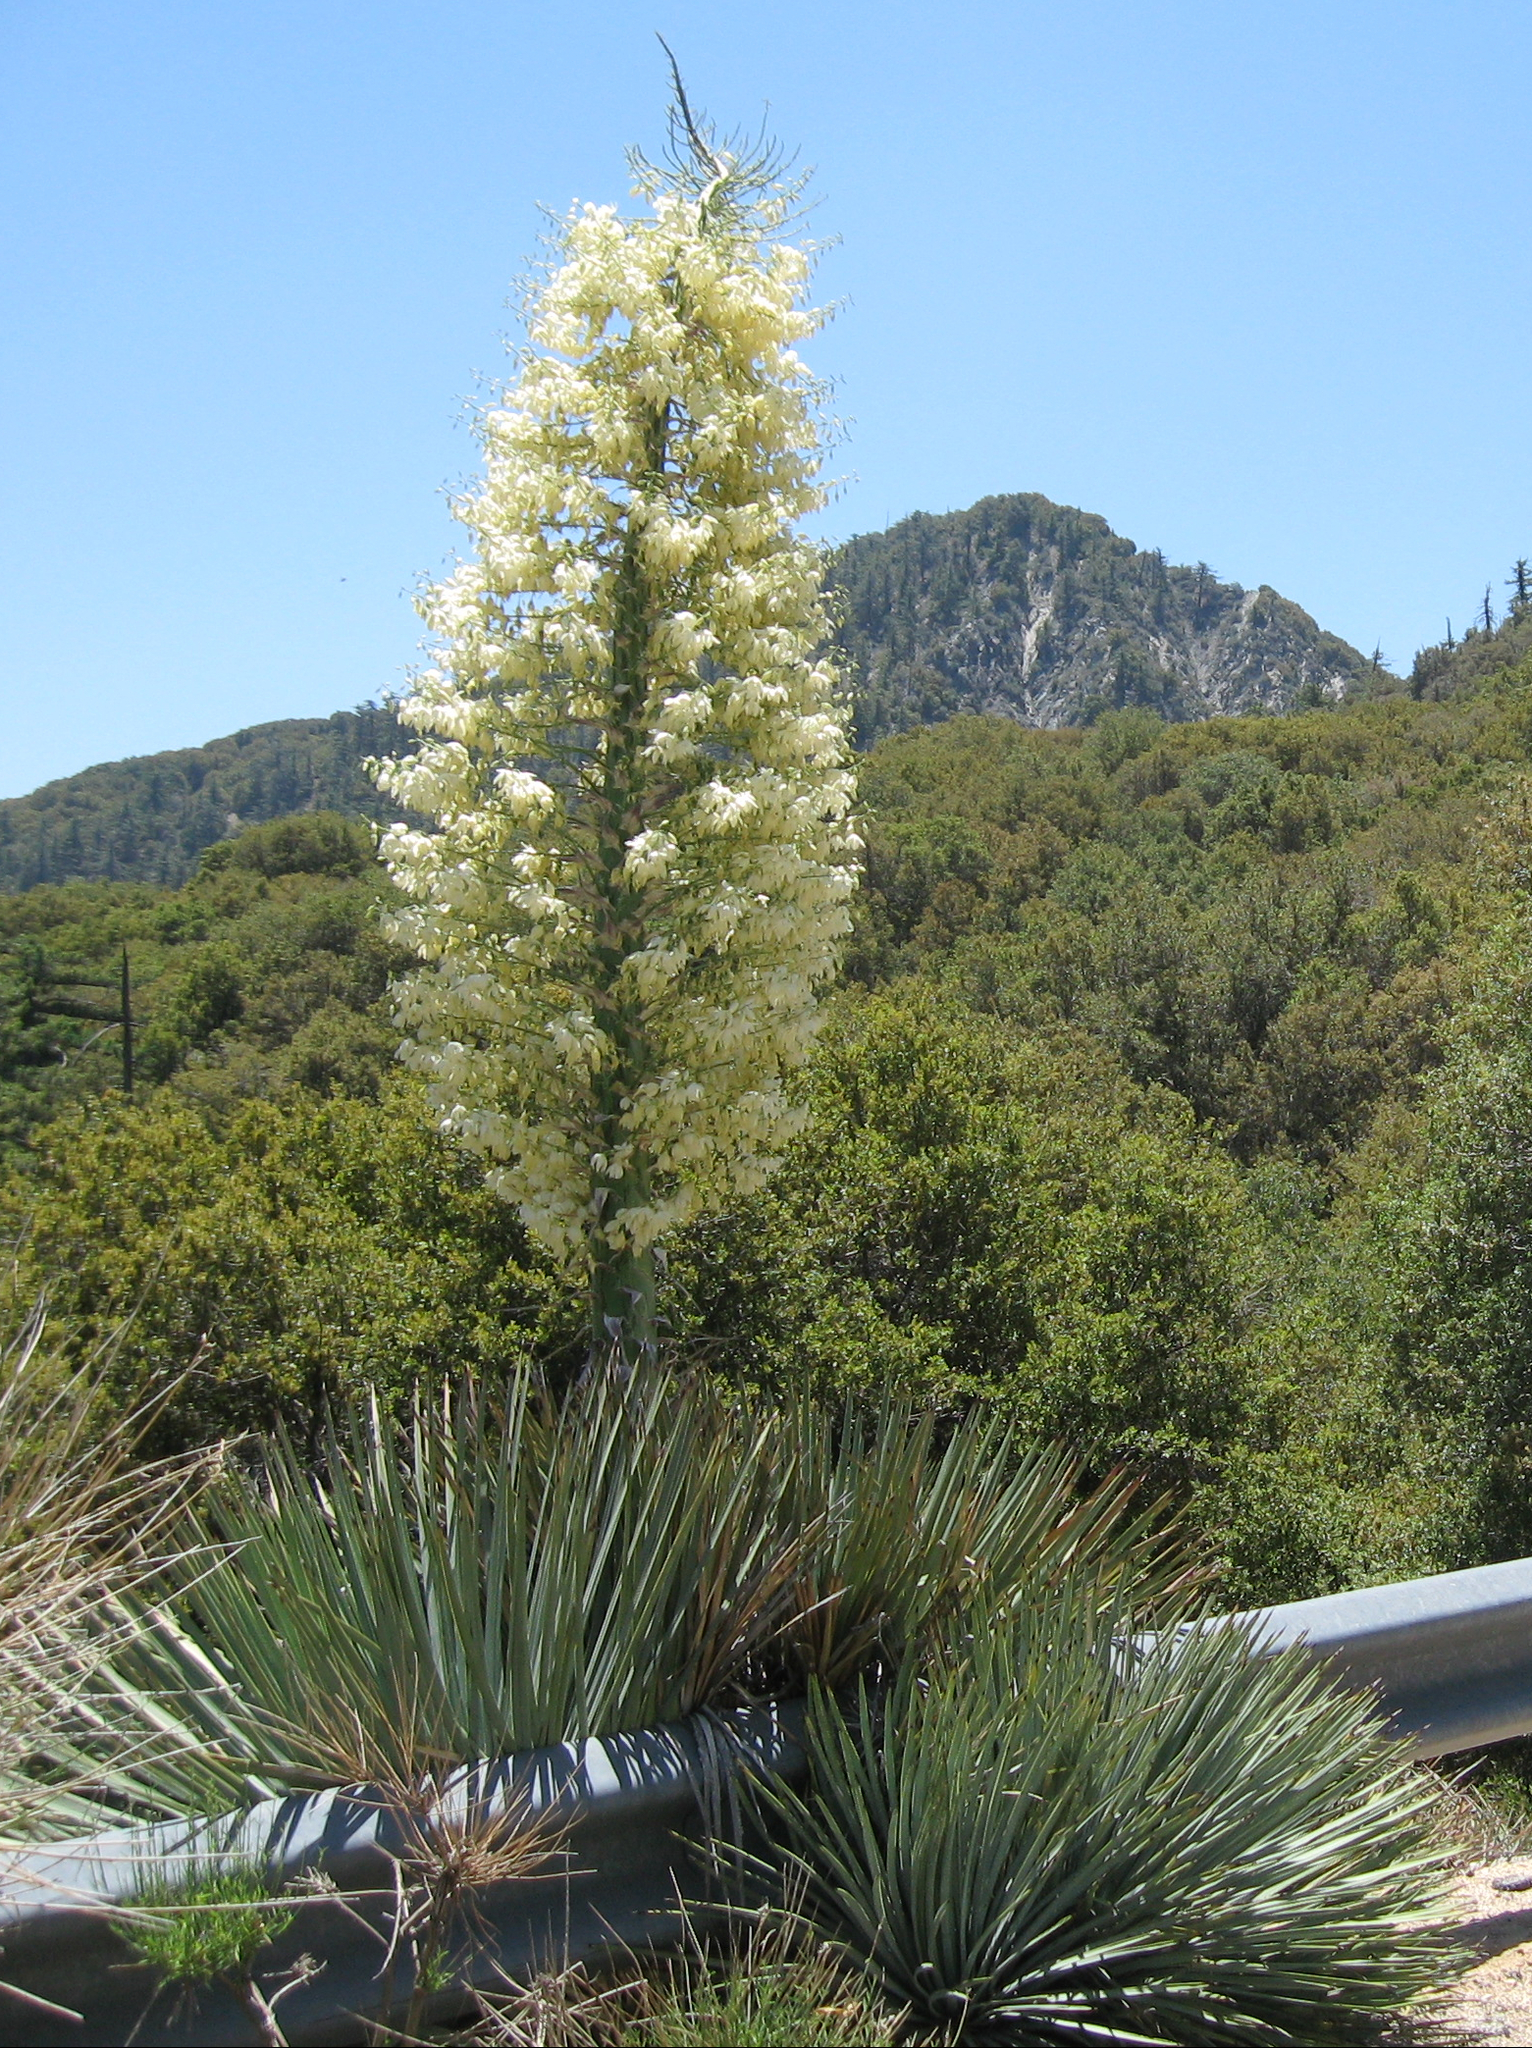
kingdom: Plantae
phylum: Tracheophyta
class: Liliopsida
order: Asparagales
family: Asparagaceae
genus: Hesperoyucca
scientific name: Hesperoyucca whipplei
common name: Our lord's-candle
